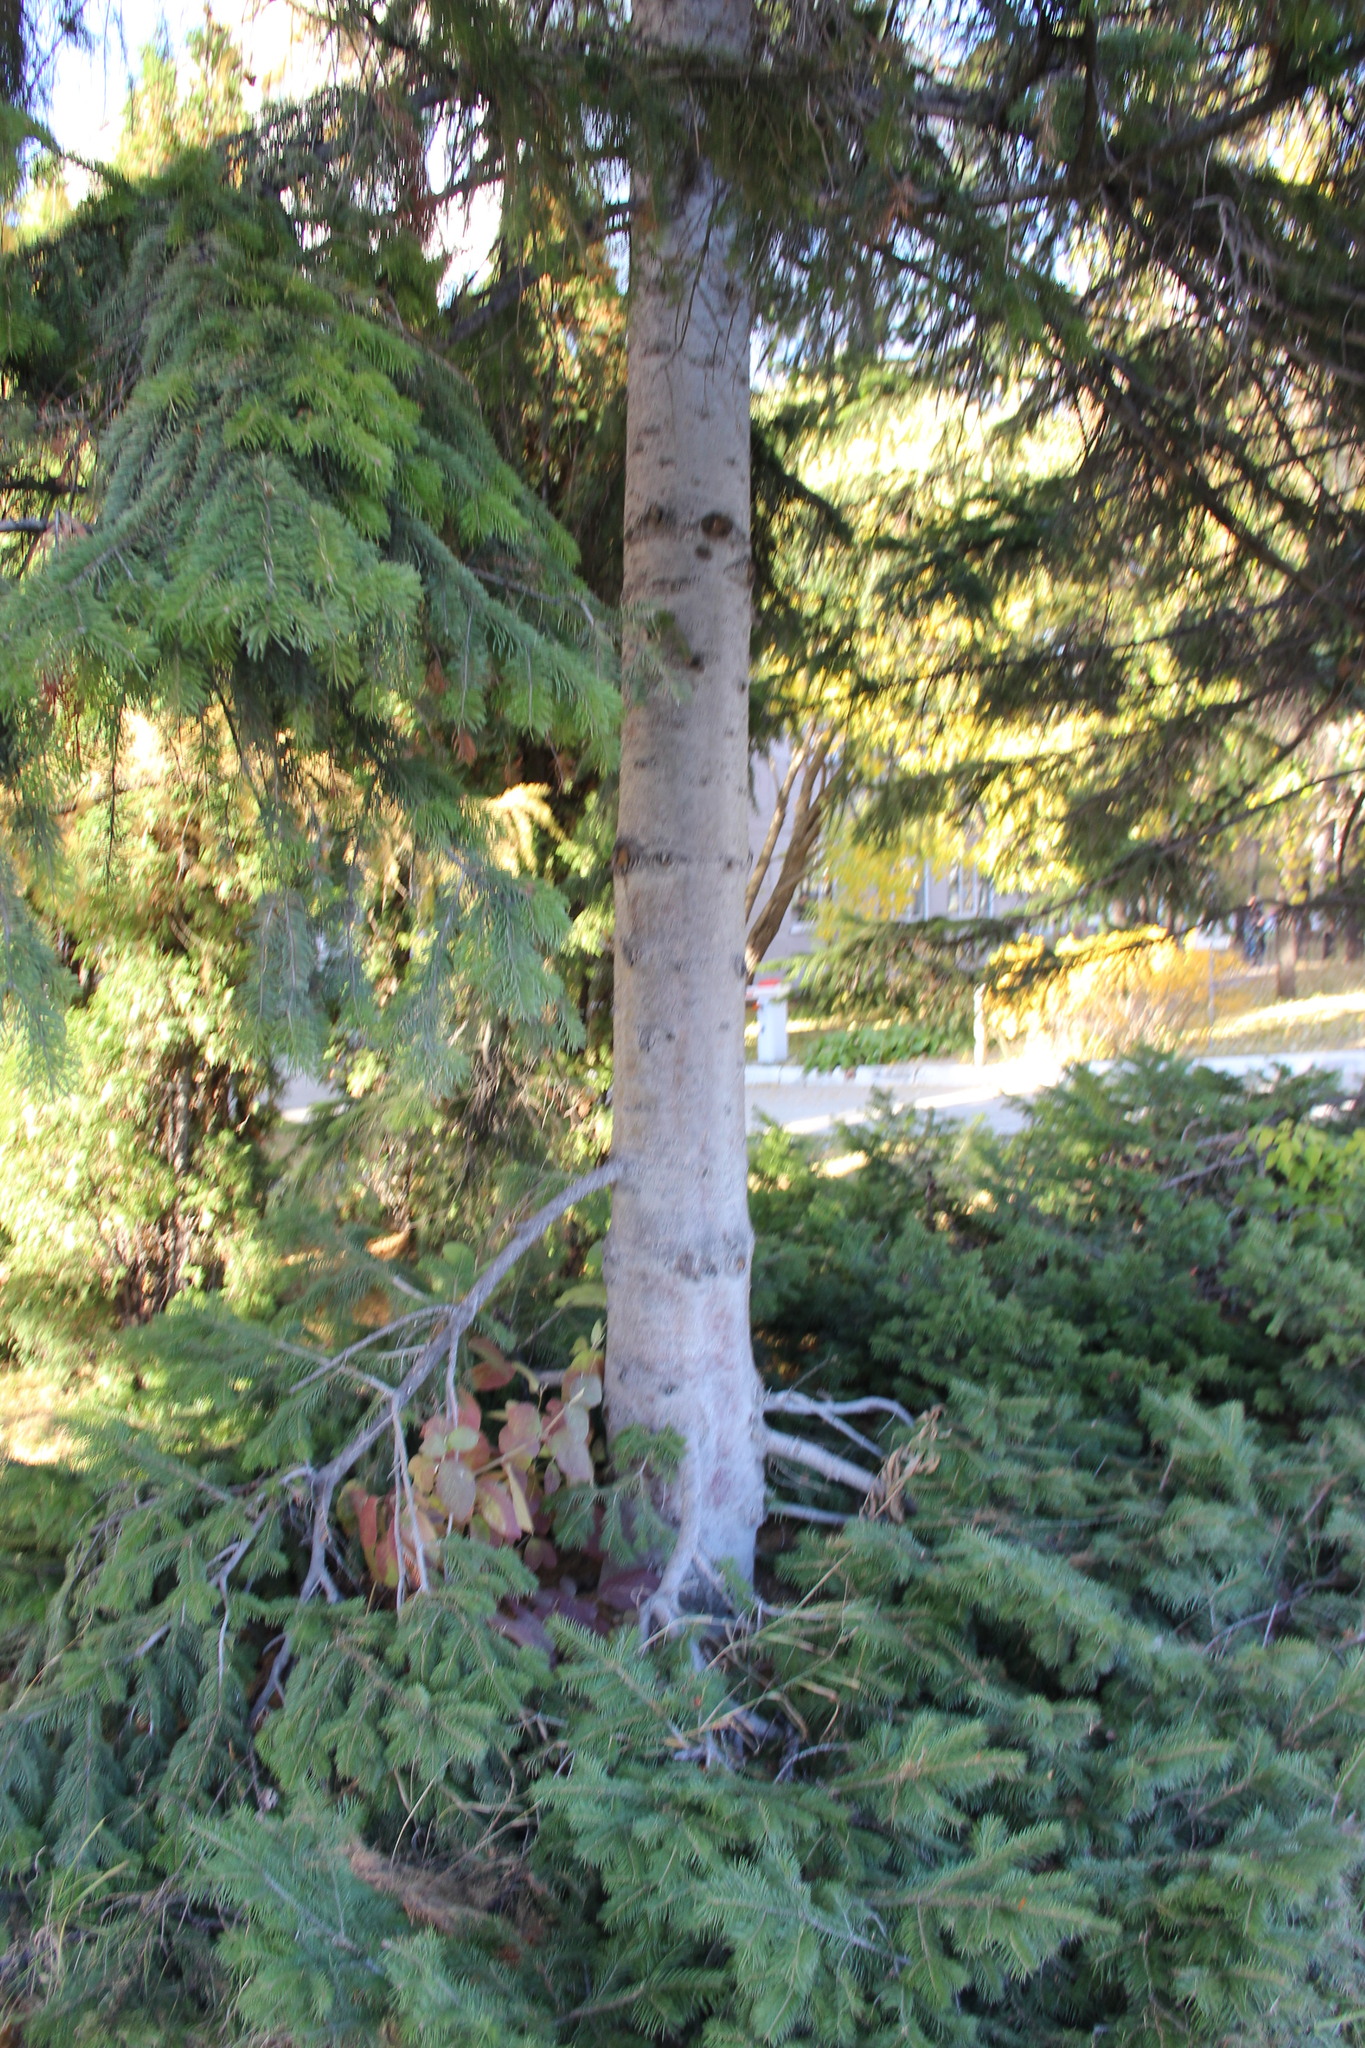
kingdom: Plantae
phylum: Tracheophyta
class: Pinopsida
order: Pinales
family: Pinaceae
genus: Abies
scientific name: Abies sibirica
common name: Siberian fir
